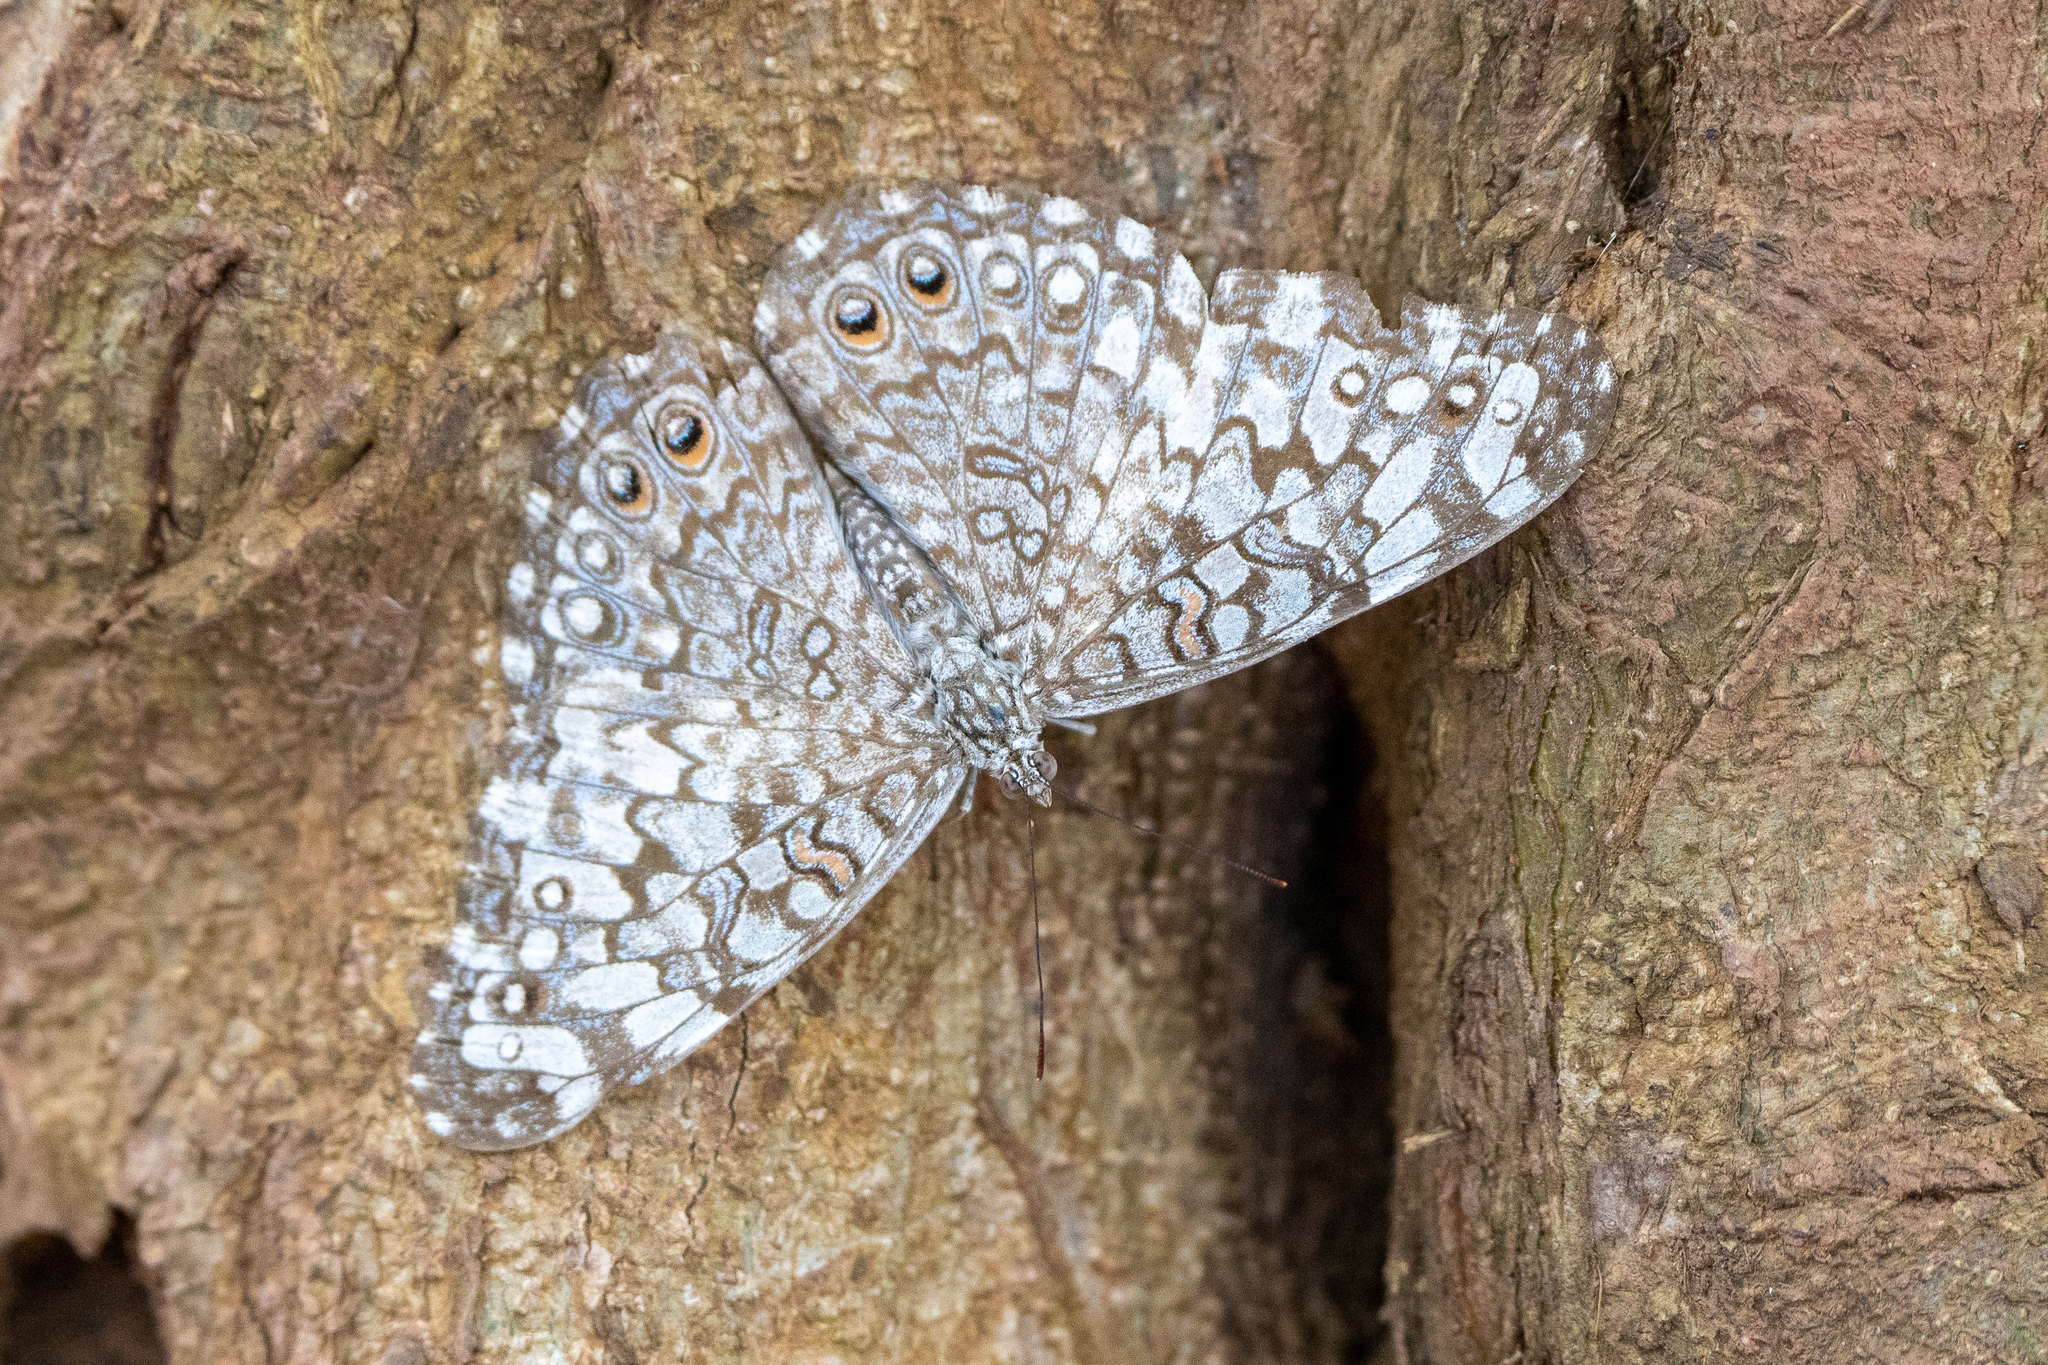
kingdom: Animalia
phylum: Arthropoda
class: Insecta
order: Lepidoptera
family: Nymphalidae
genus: Hamadryas
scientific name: Hamadryas februa
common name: Gray cracker
